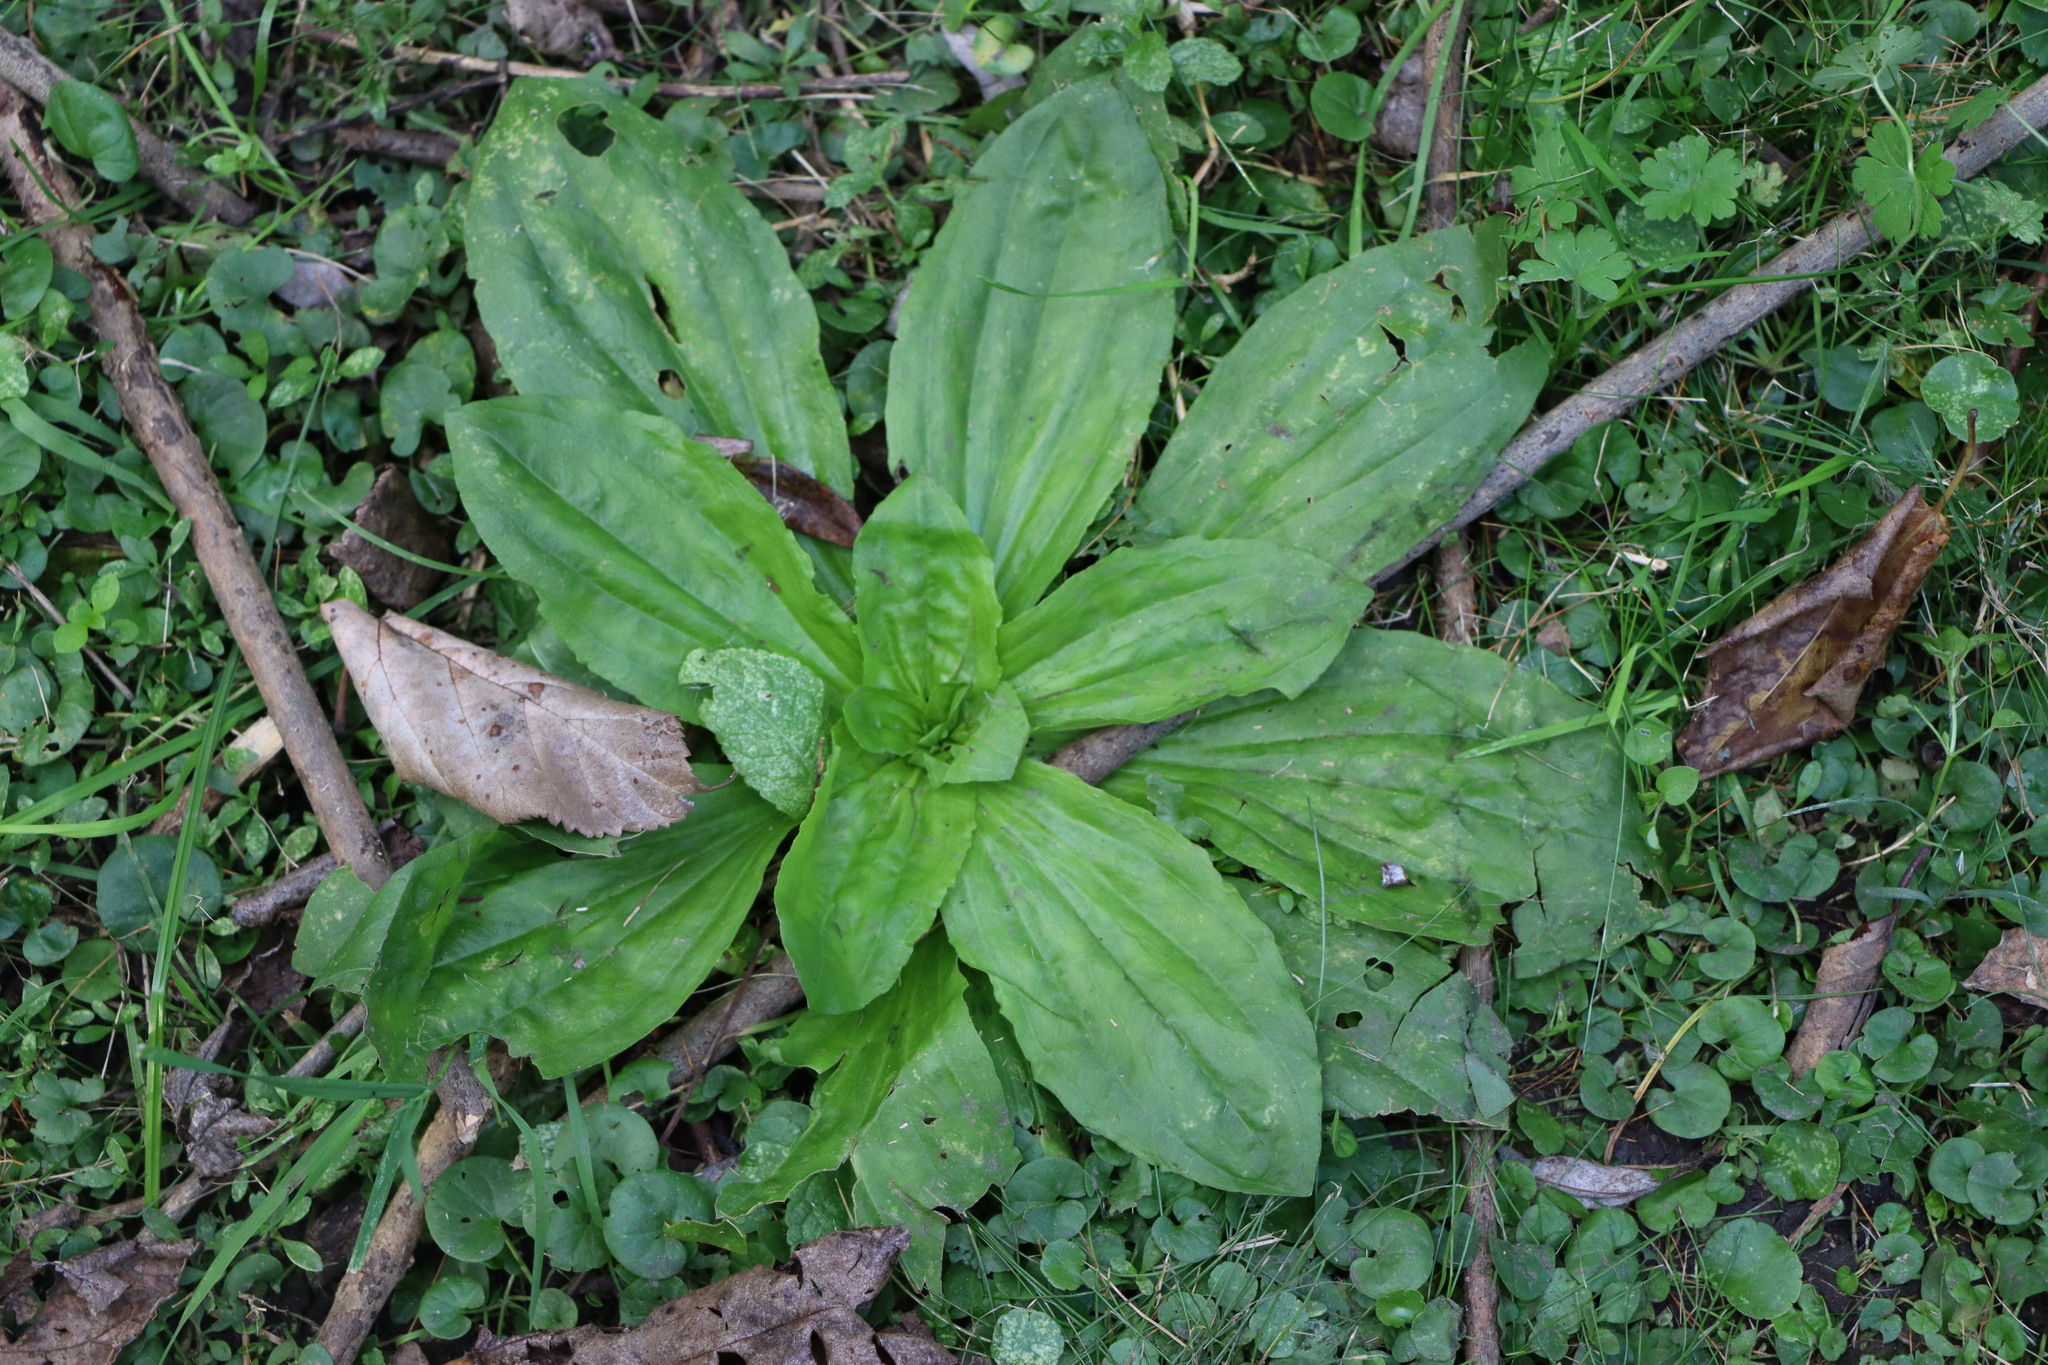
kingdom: Plantae
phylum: Tracheophyta
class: Magnoliopsida
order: Lamiales
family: Plantaginaceae
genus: Plantago
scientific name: Plantago australis
